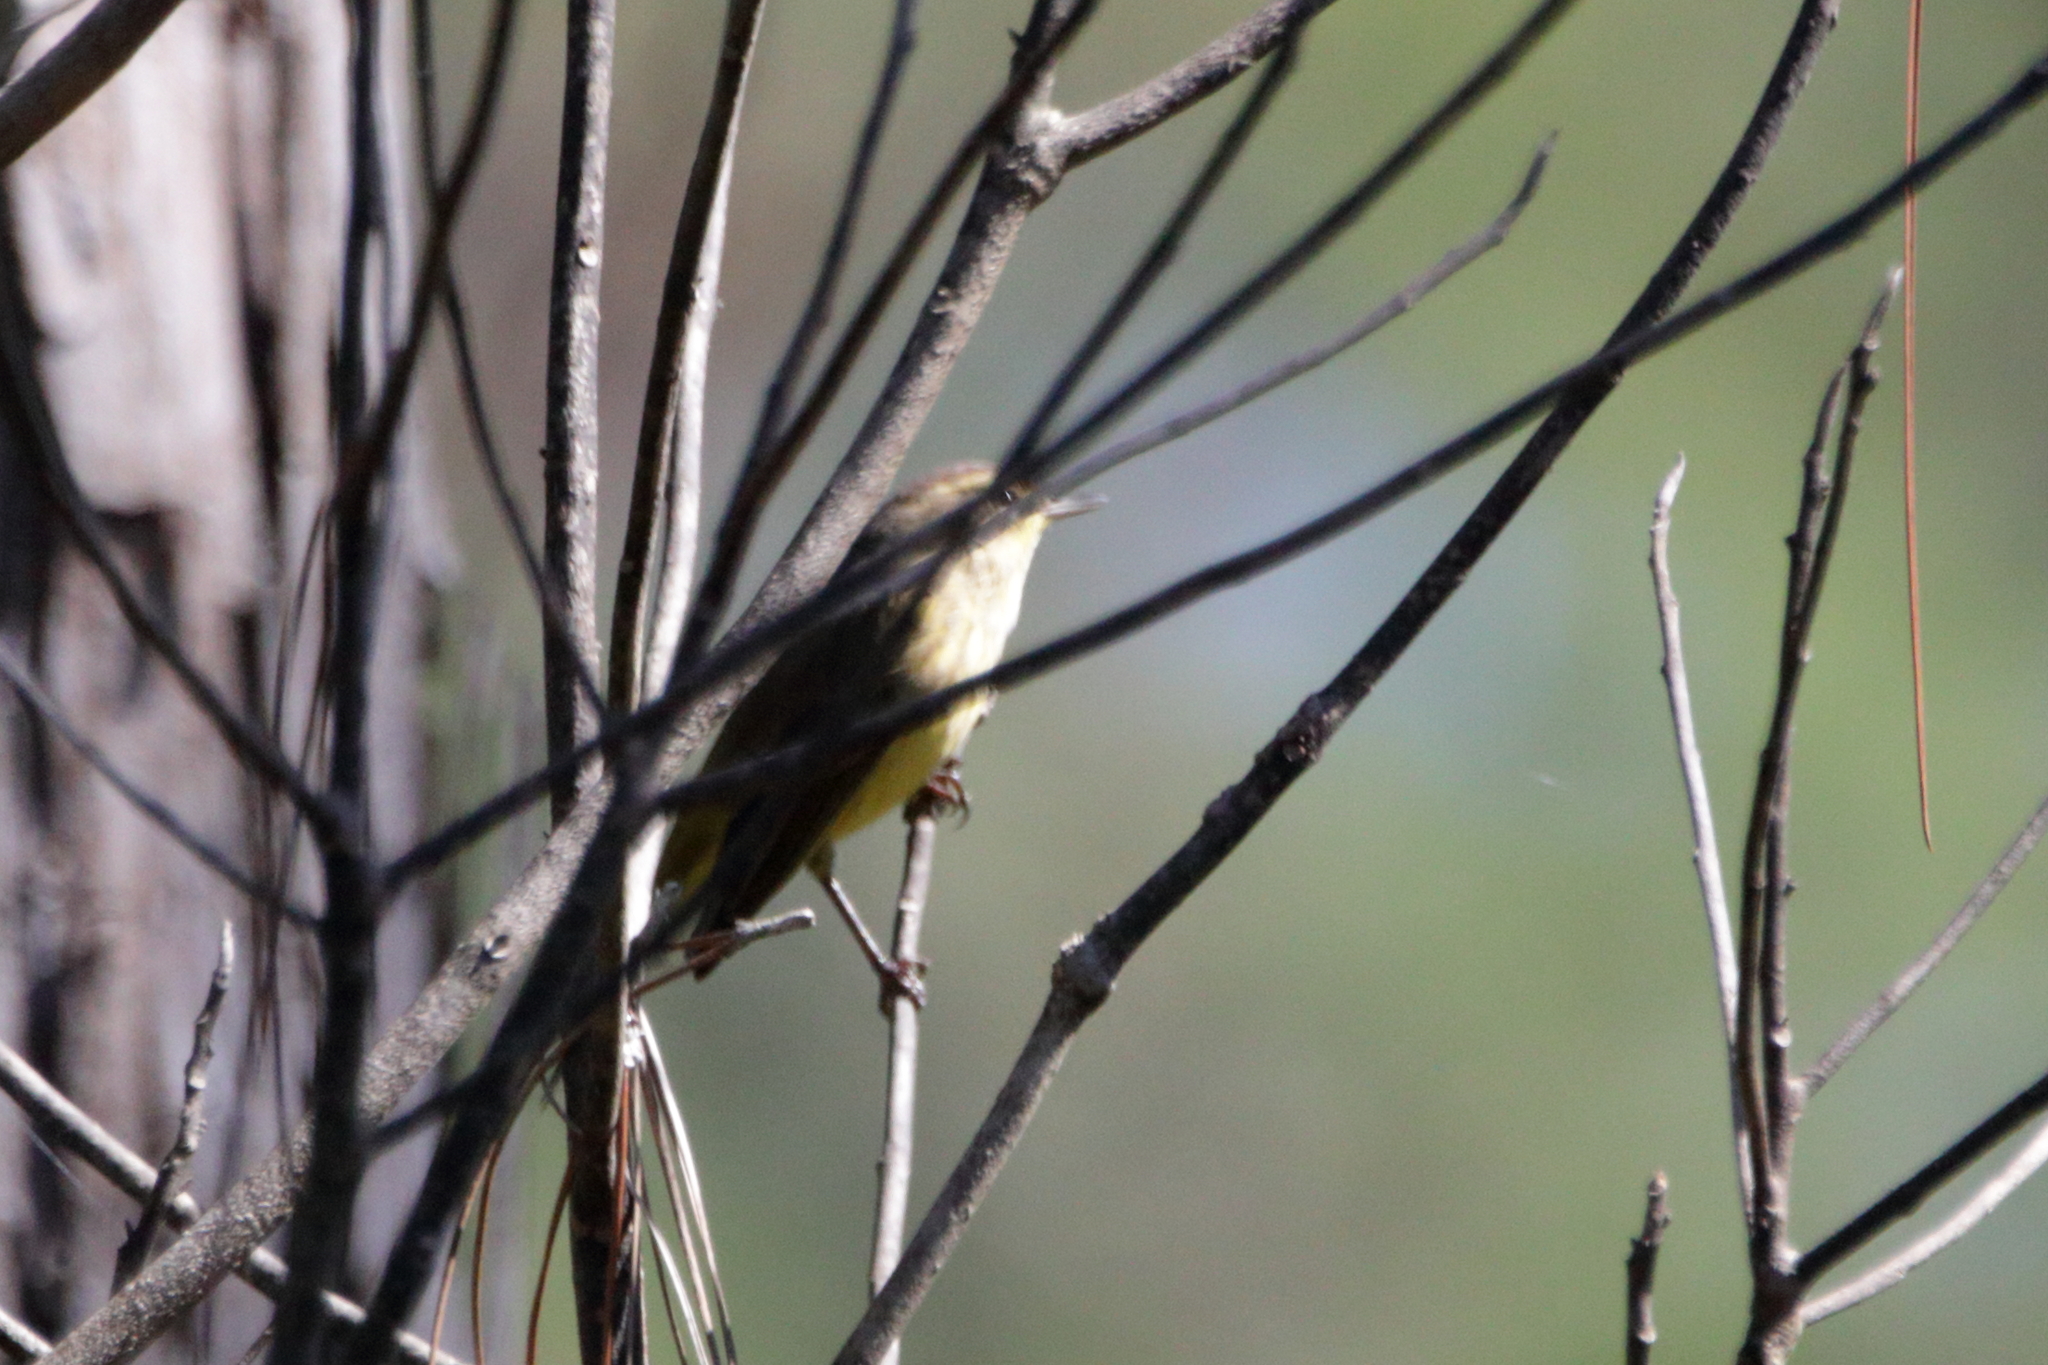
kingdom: Animalia
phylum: Chordata
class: Aves
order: Passeriformes
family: Parulidae
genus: Setophaga
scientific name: Setophaga palmarum
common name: Palm warbler
